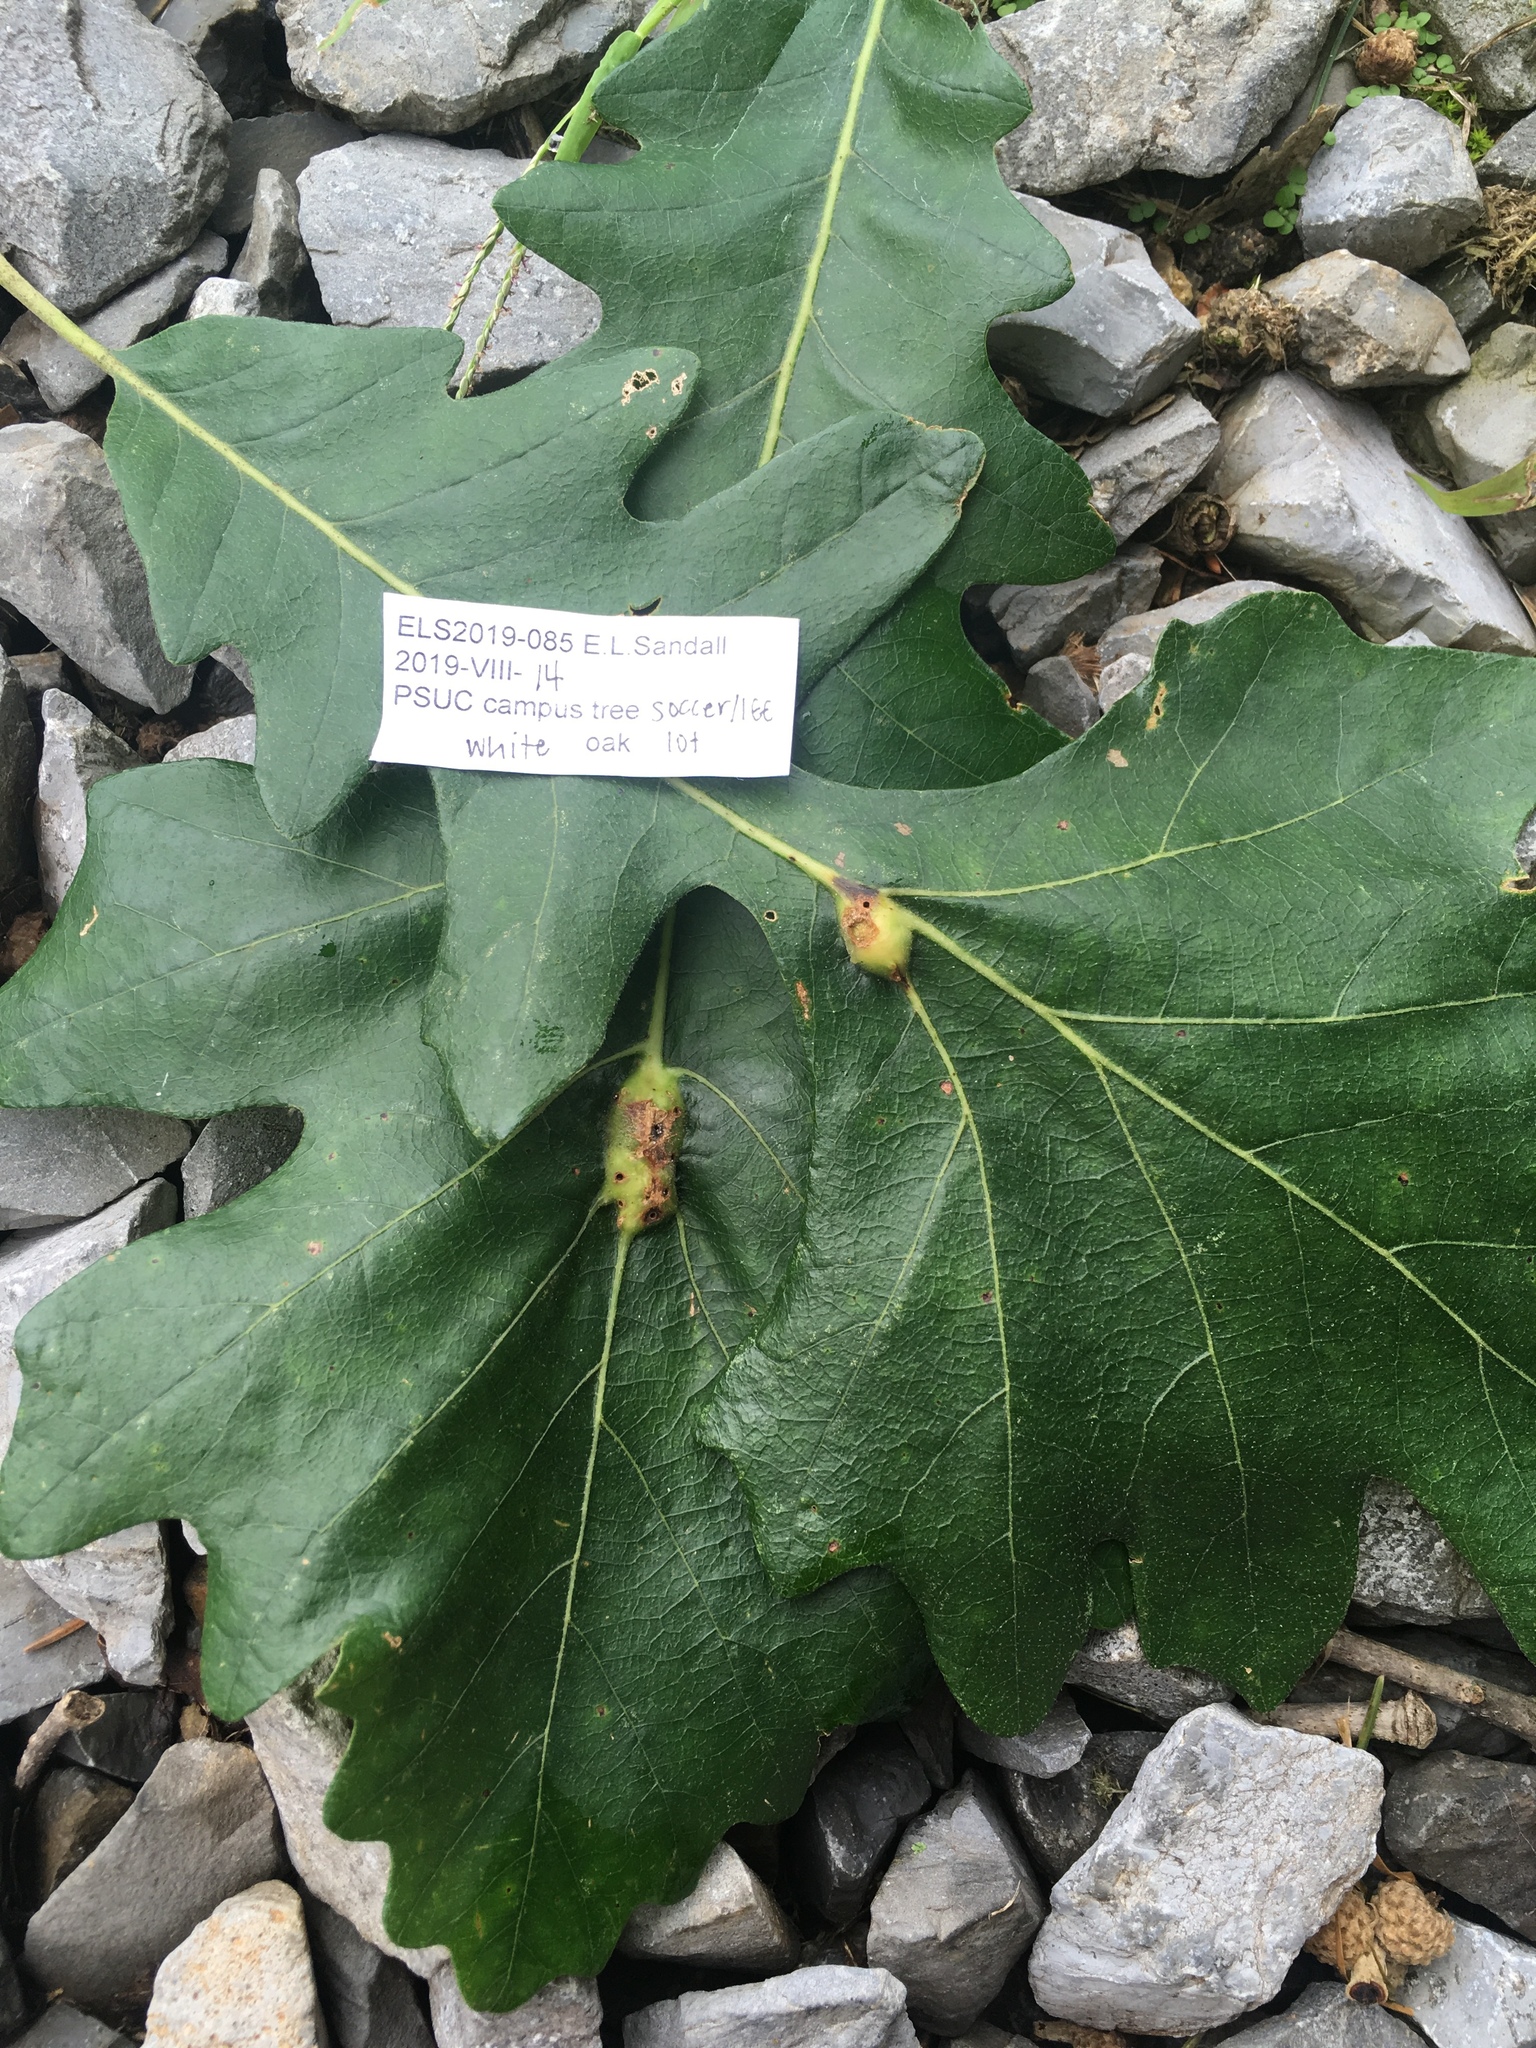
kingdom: Animalia
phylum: Arthropoda
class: Insecta
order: Hymenoptera
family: Cynipidae
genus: Bassettia
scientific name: Bassettia flavipes
